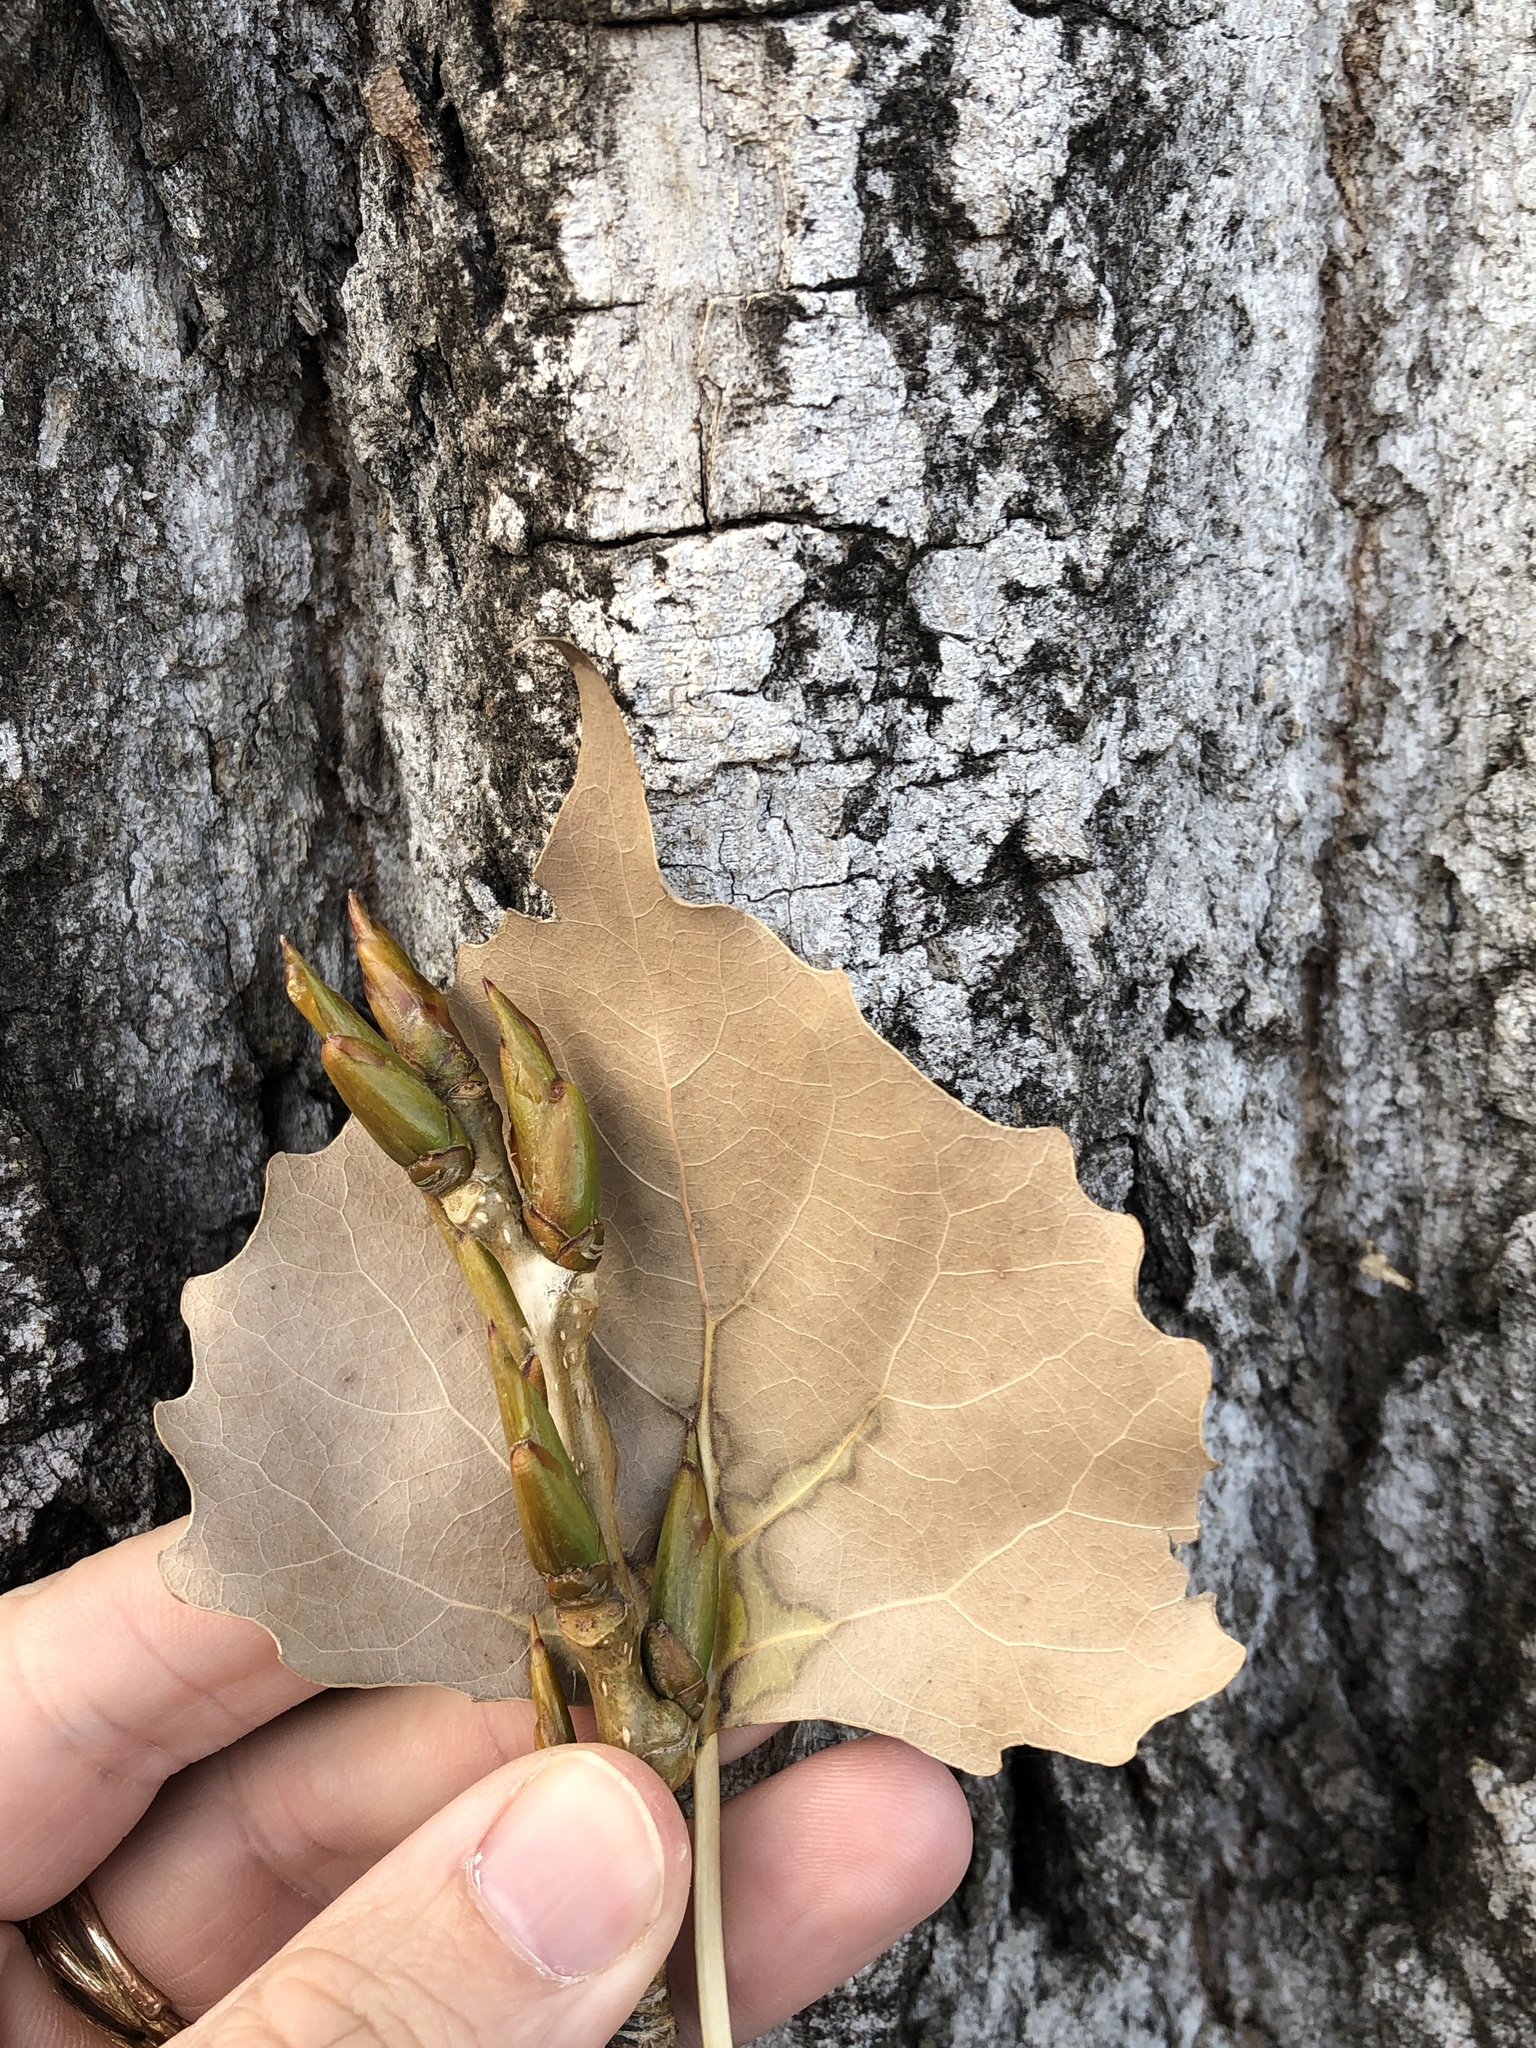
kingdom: Plantae
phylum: Tracheophyta
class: Magnoliopsida
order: Malpighiales
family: Salicaceae
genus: Populus
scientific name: Populus deltoides
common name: Eastern cottonwood
